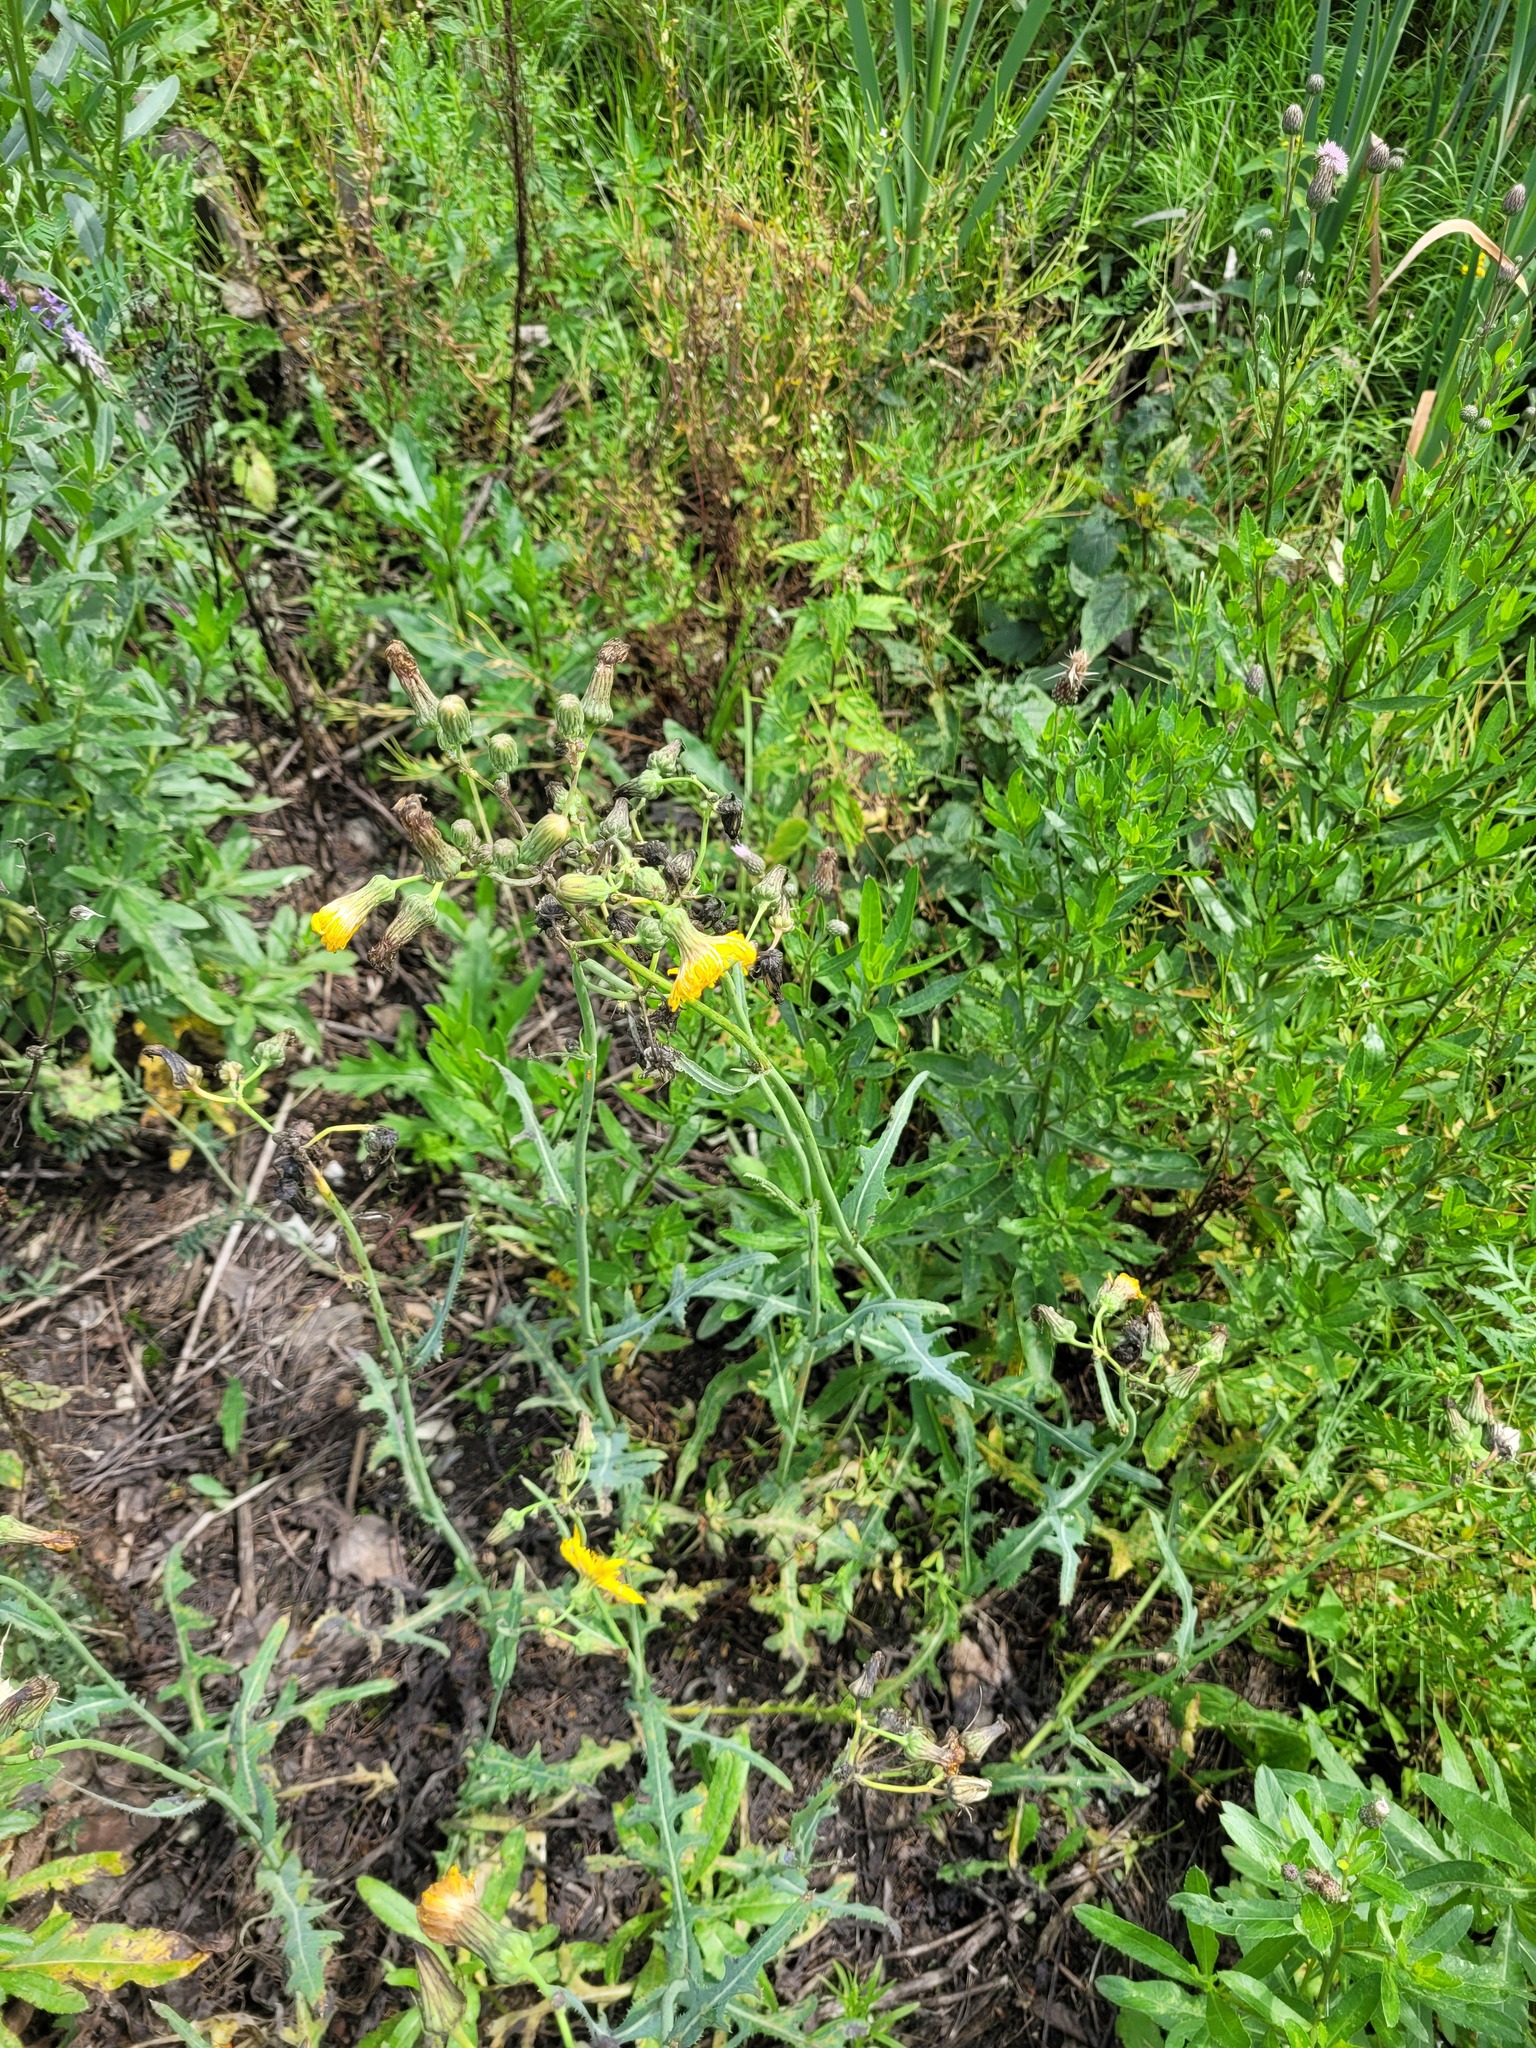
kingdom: Plantae
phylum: Tracheophyta
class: Magnoliopsida
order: Asterales
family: Asteraceae
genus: Sonchus
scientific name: Sonchus arvensis
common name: Perennial sow-thistle
